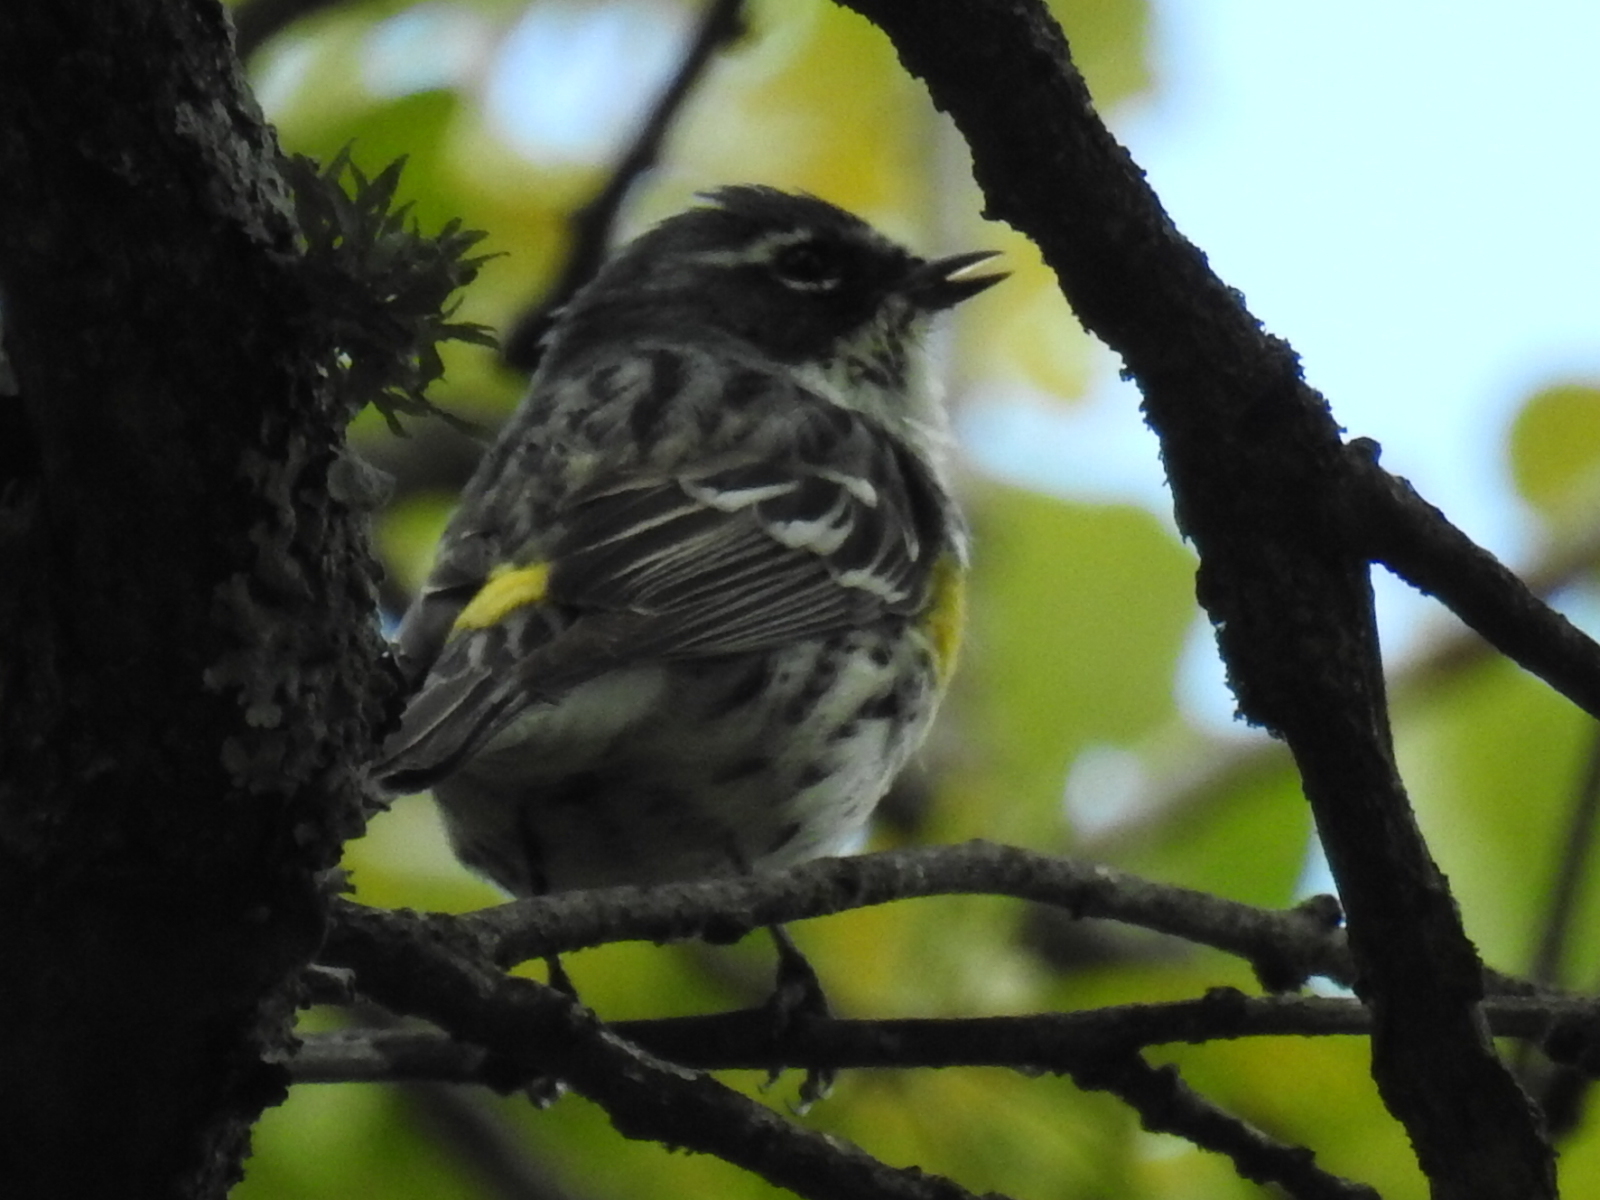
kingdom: Animalia
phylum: Chordata
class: Aves
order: Passeriformes
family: Parulidae
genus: Setophaga
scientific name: Setophaga coronata
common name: Myrtle warbler
